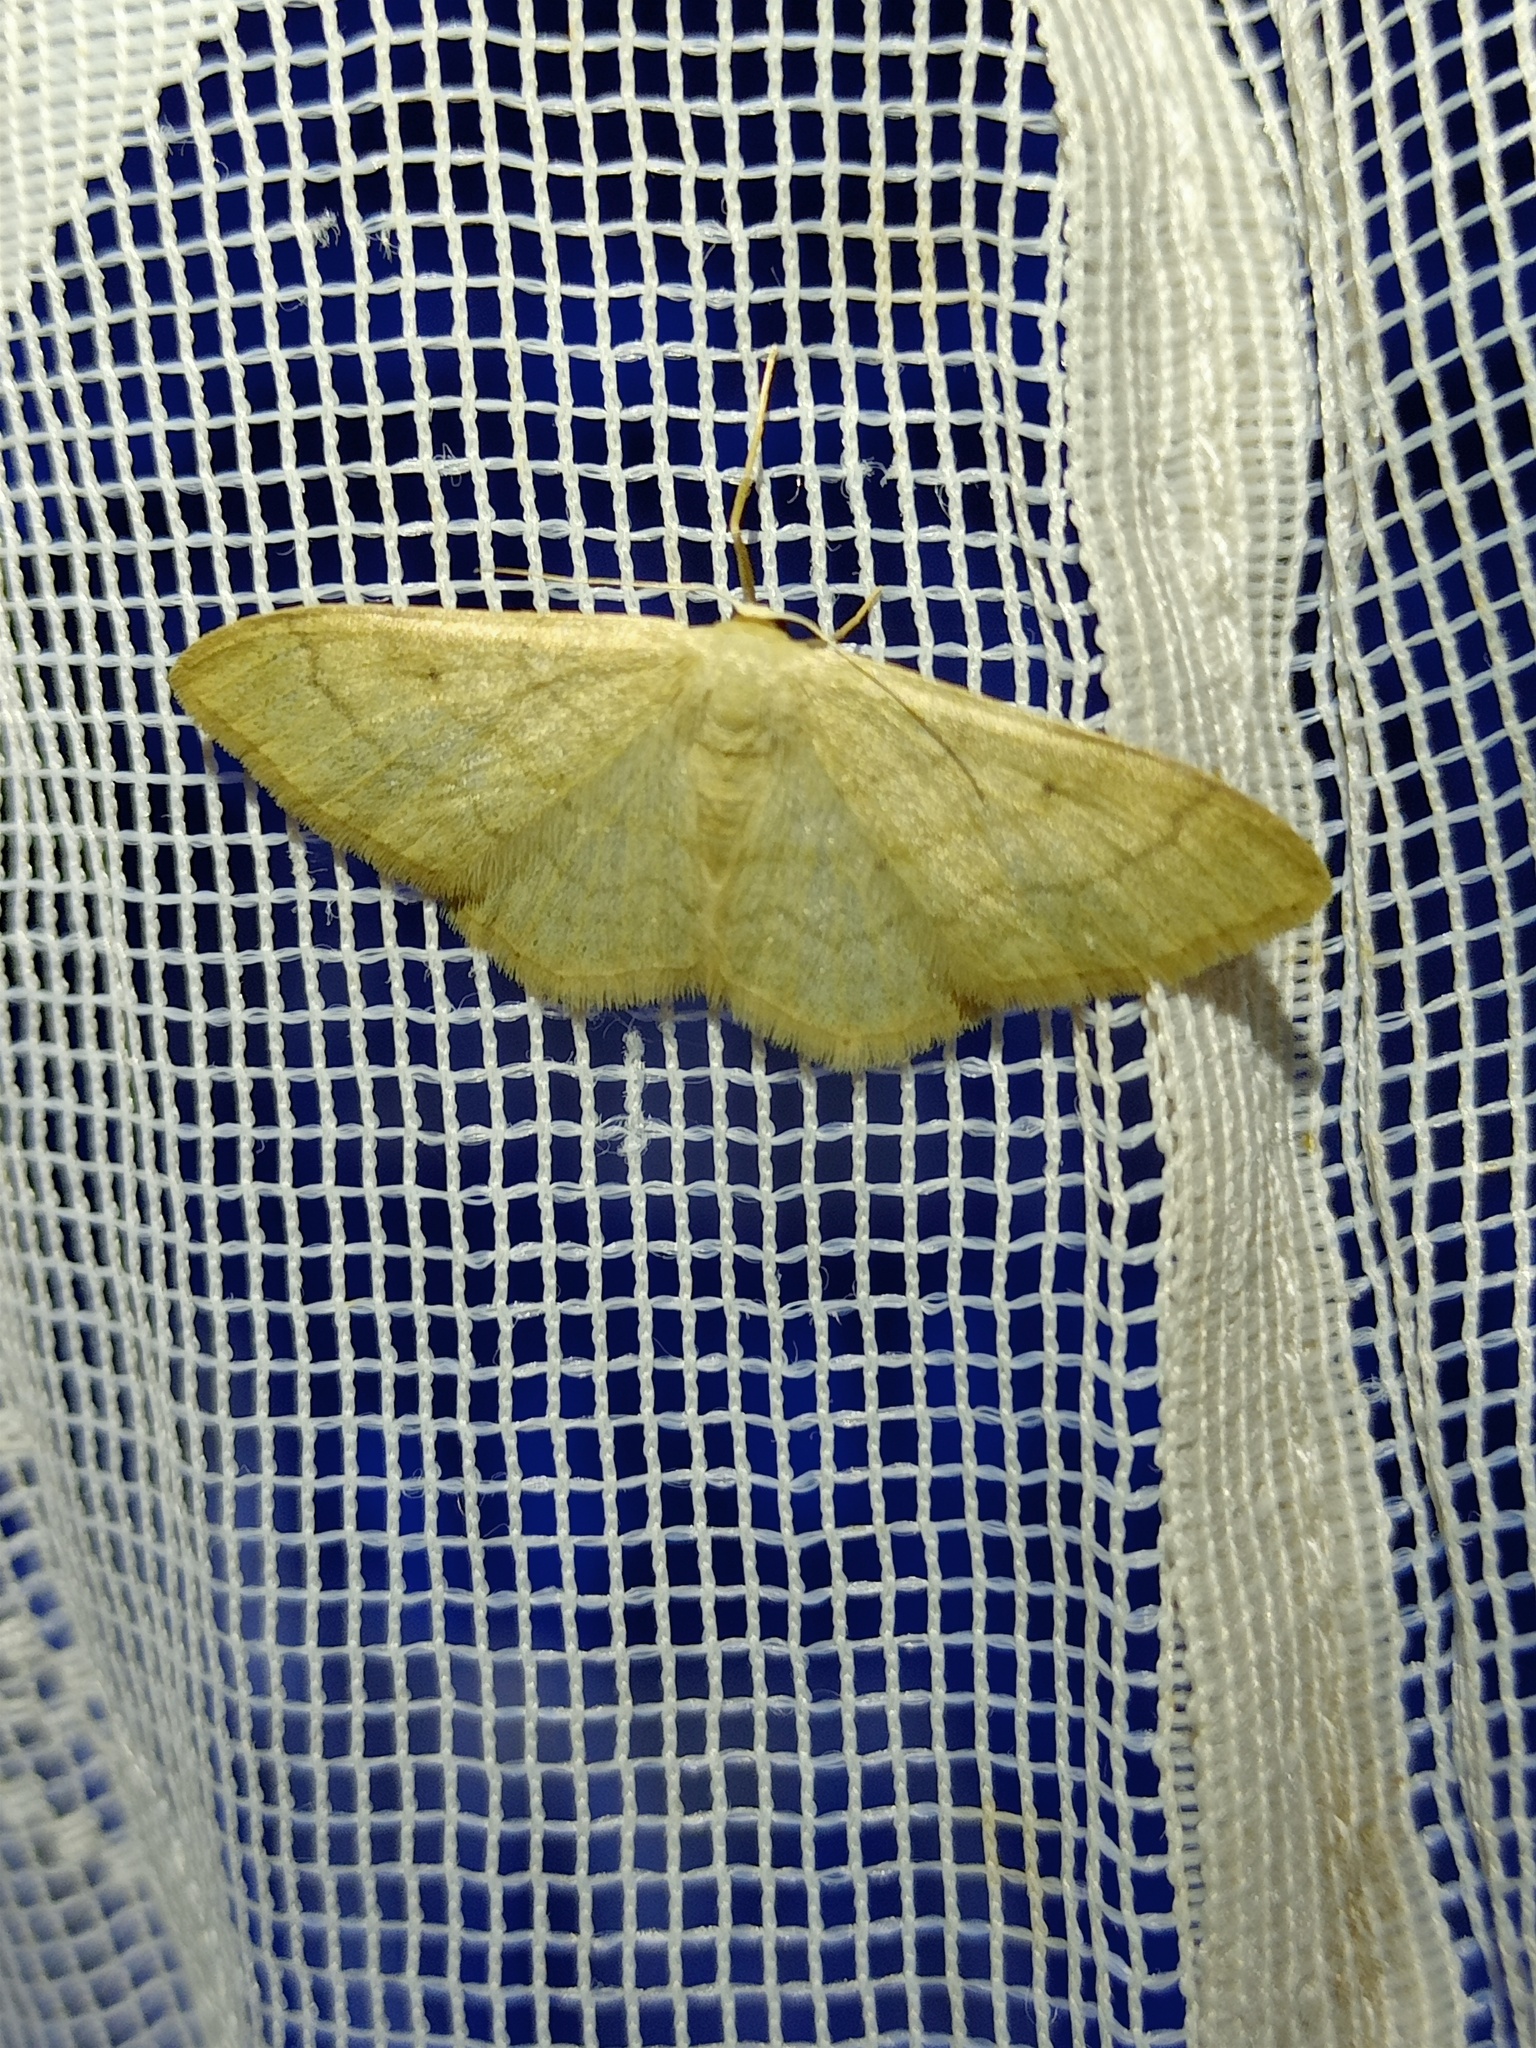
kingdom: Animalia
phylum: Arthropoda
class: Insecta
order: Lepidoptera
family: Geometridae
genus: Idaea
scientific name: Idaea straminata
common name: Plain wave
